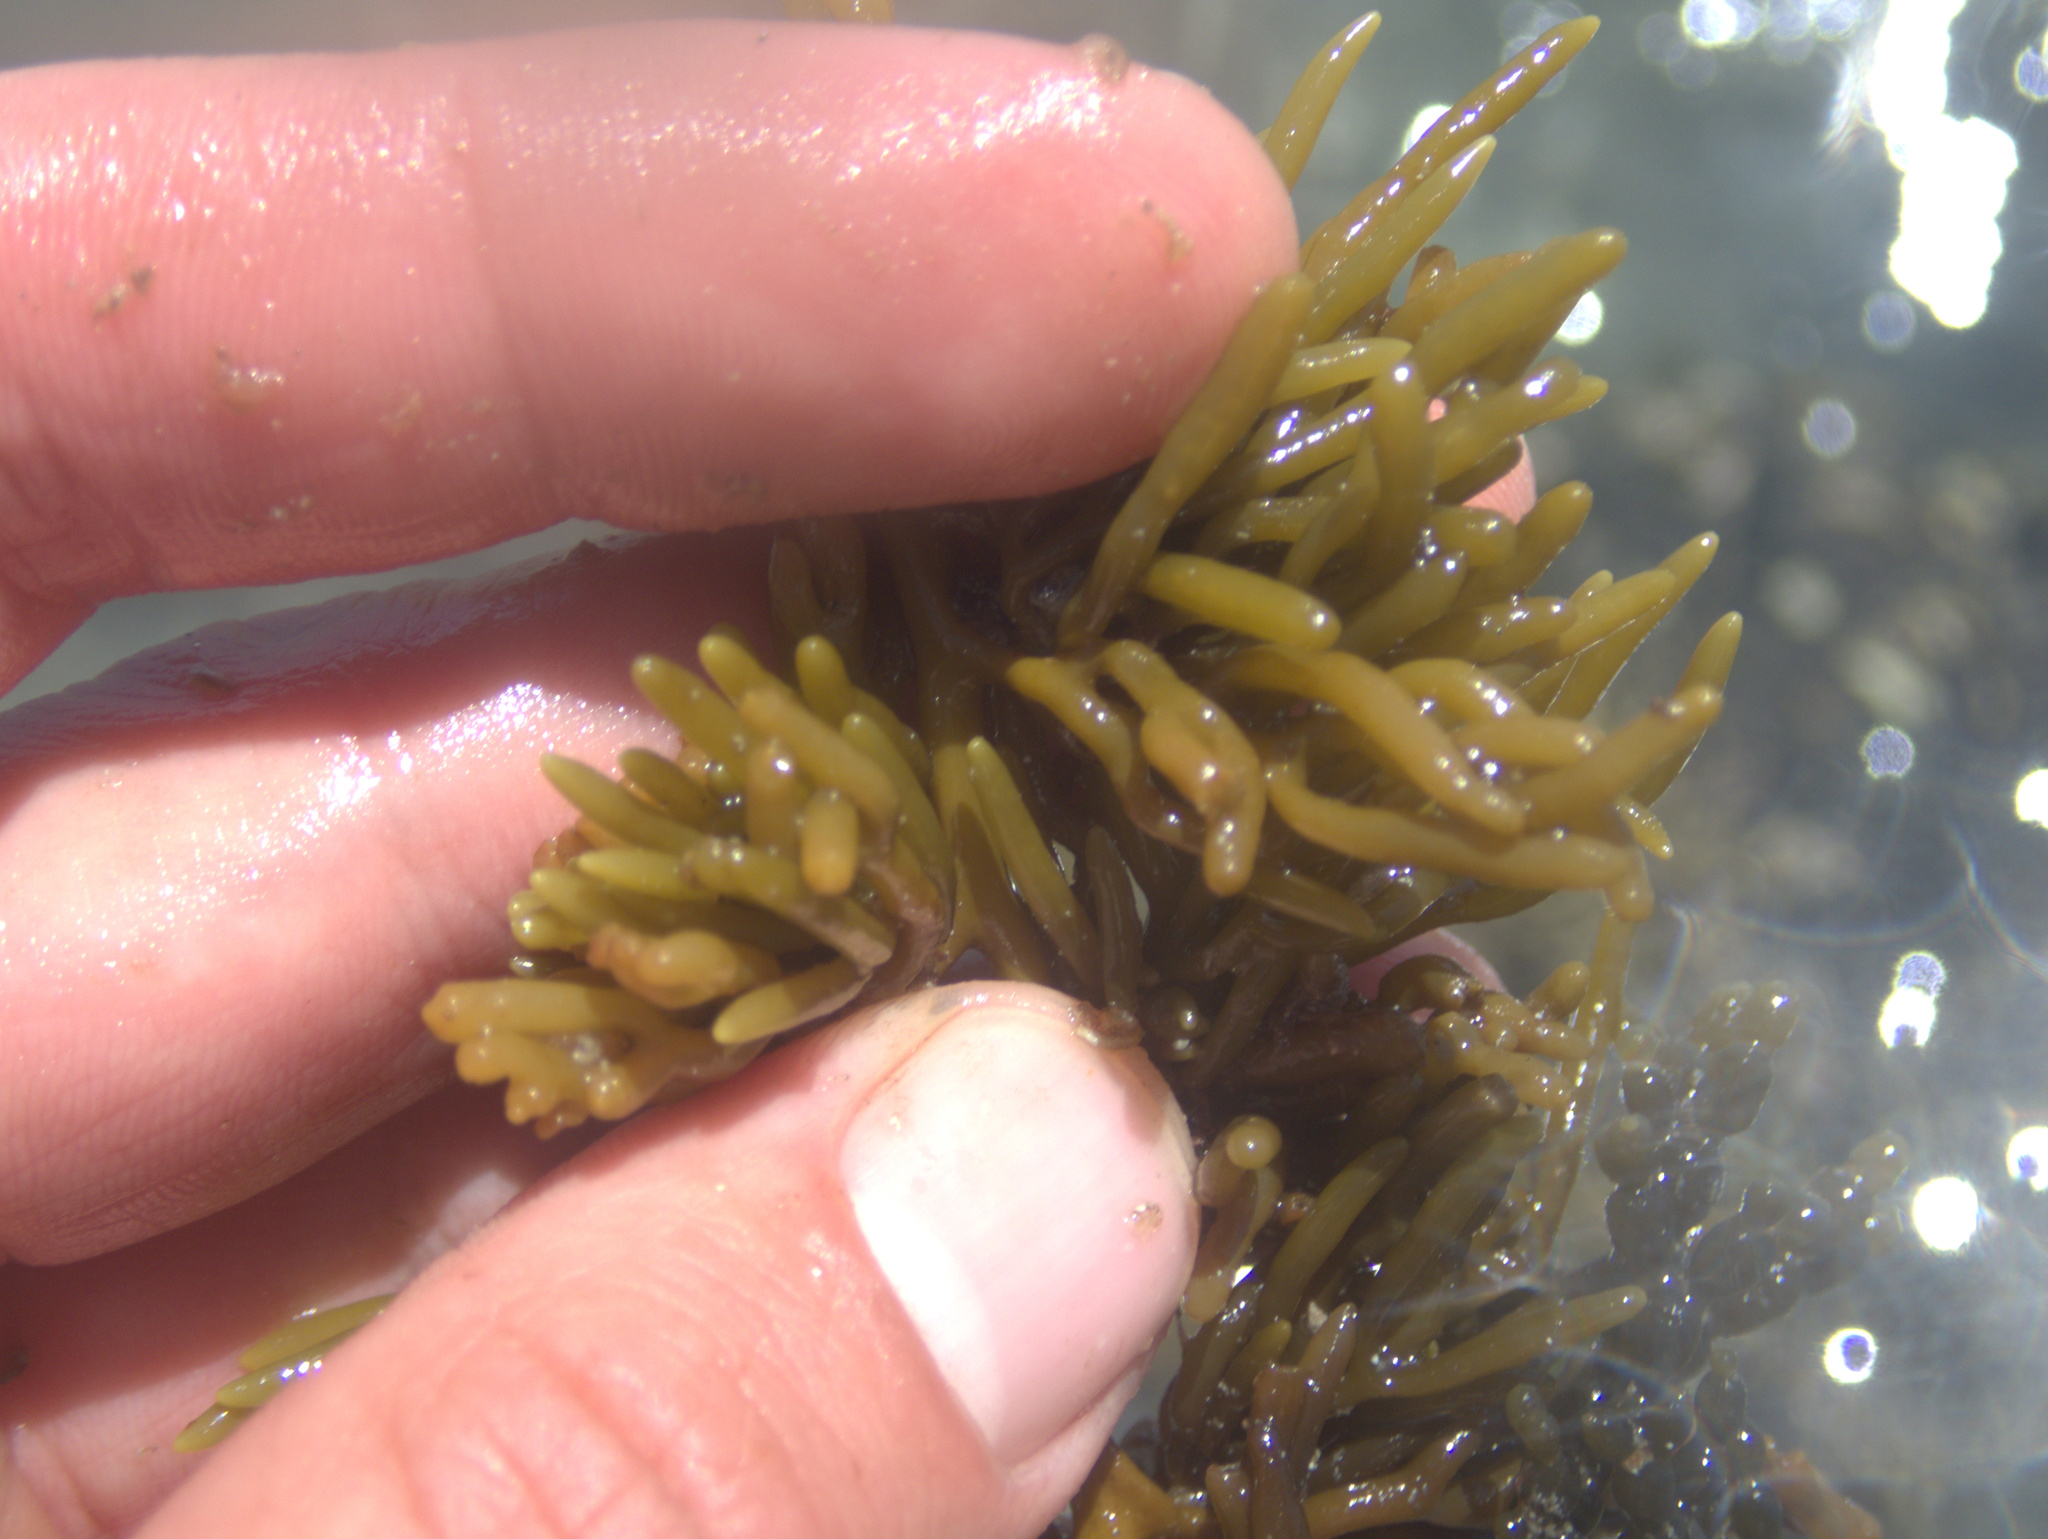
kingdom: Chromista
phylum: Ochrophyta
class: Phaeophyceae
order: Fucales
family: Sargassaceae
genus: Cystophora
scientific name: Cystophora torulosa
